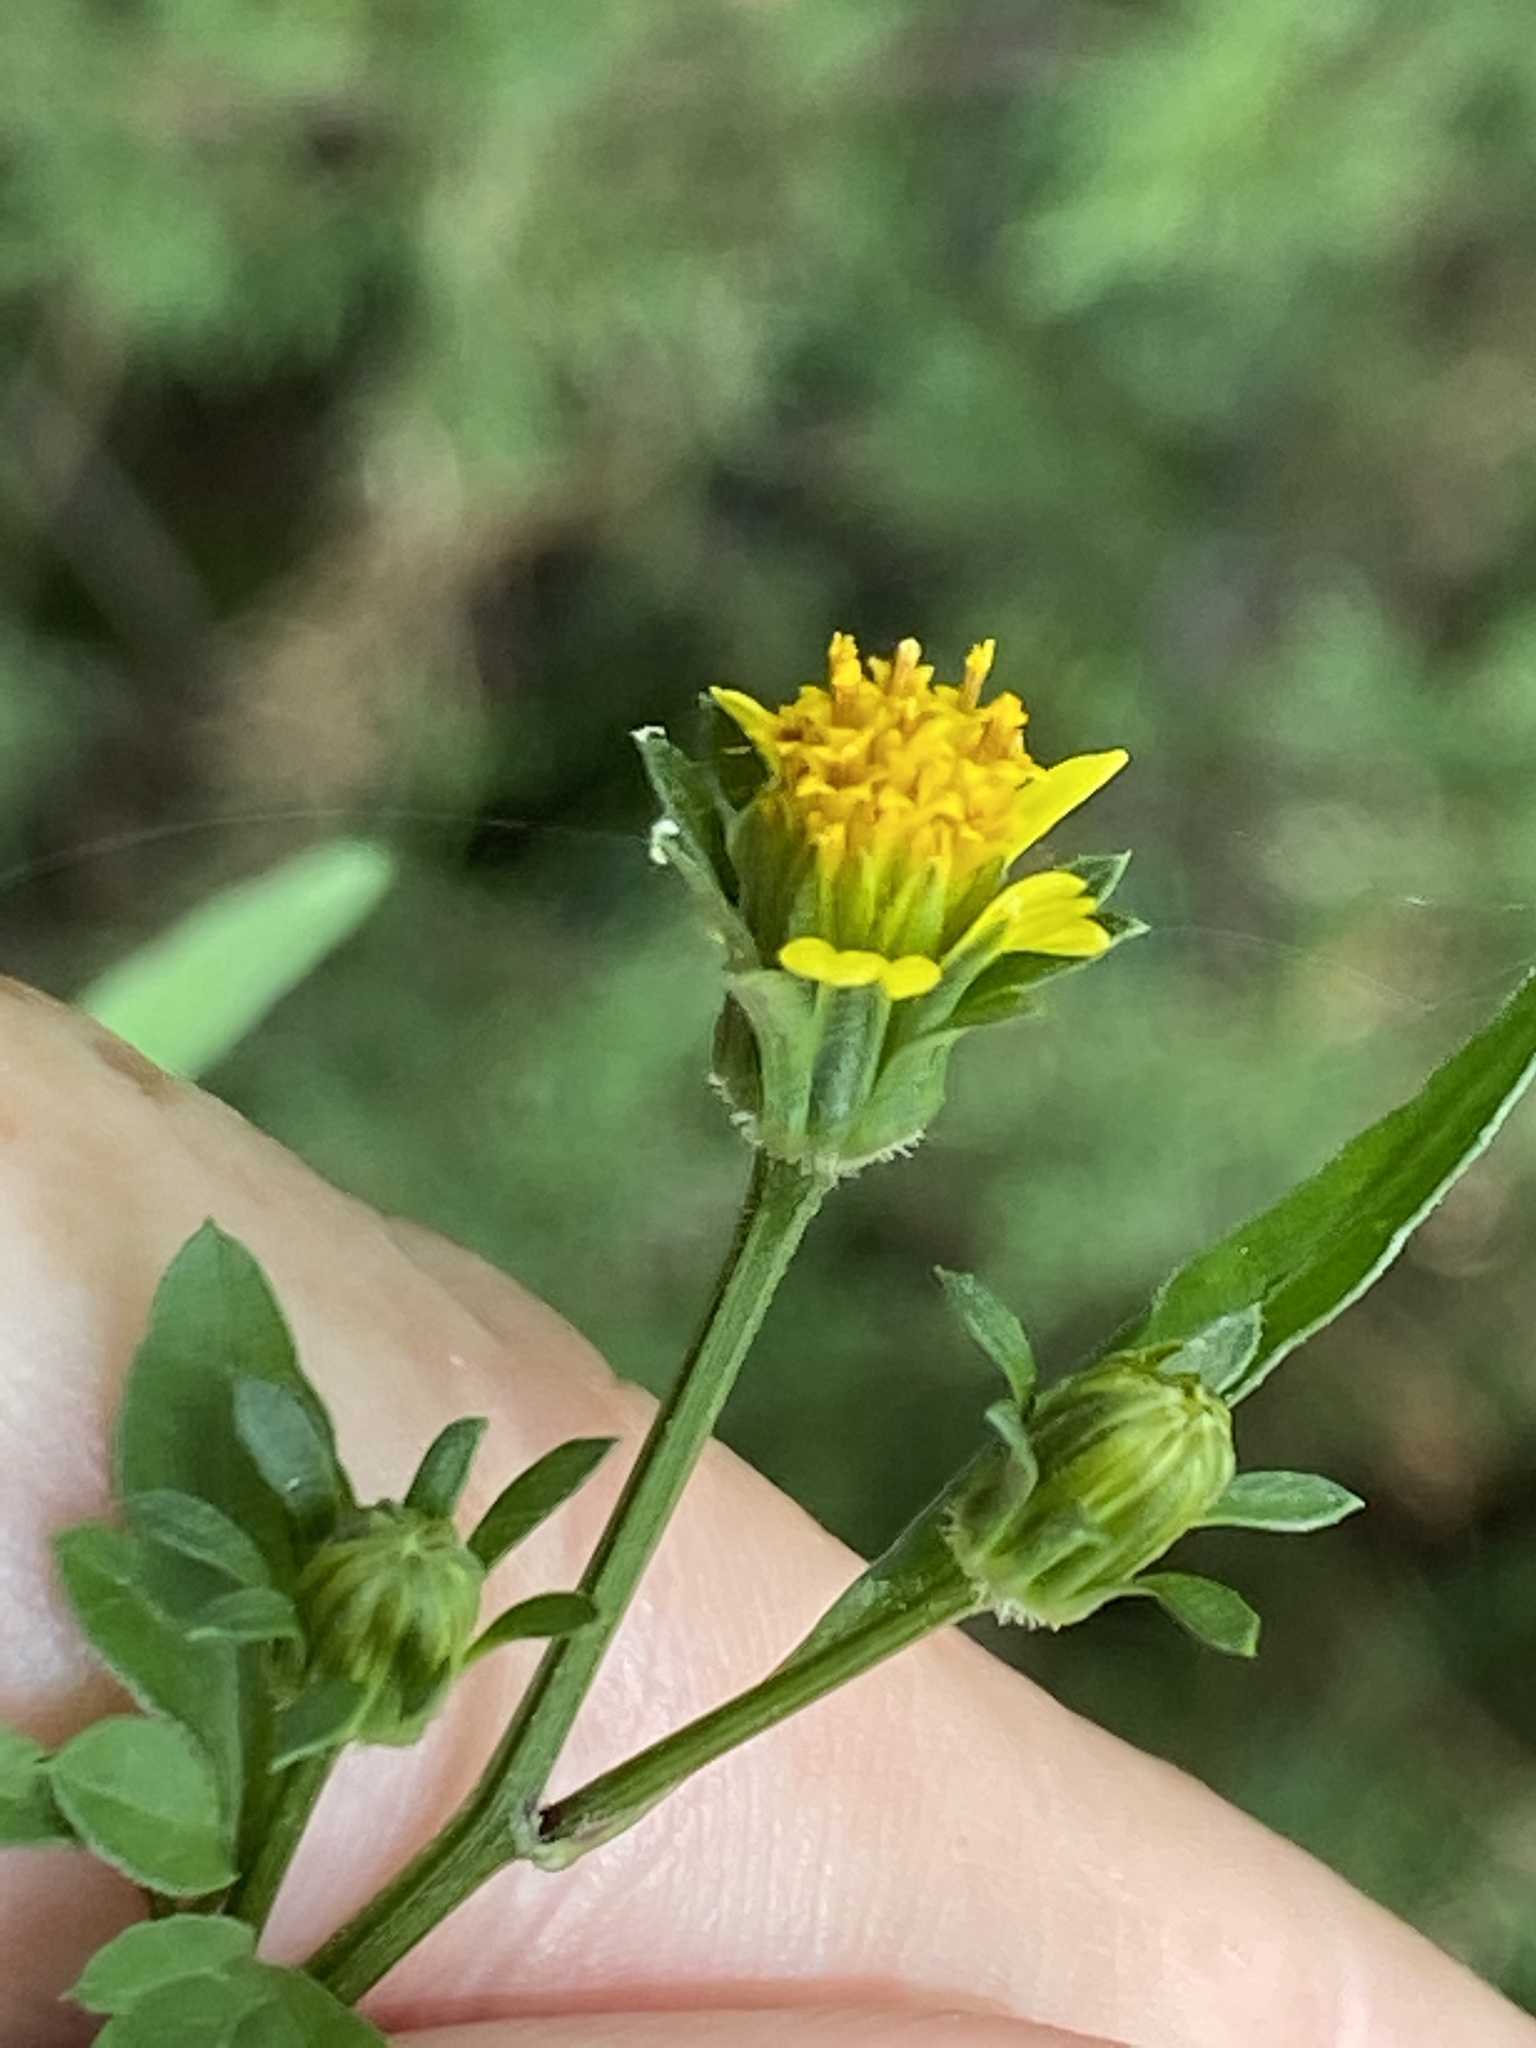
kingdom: Plantae
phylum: Tracheophyta
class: Magnoliopsida
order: Asterales
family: Asteraceae
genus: Bidens
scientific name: Bidens bipinnata
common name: Spanish-needles
